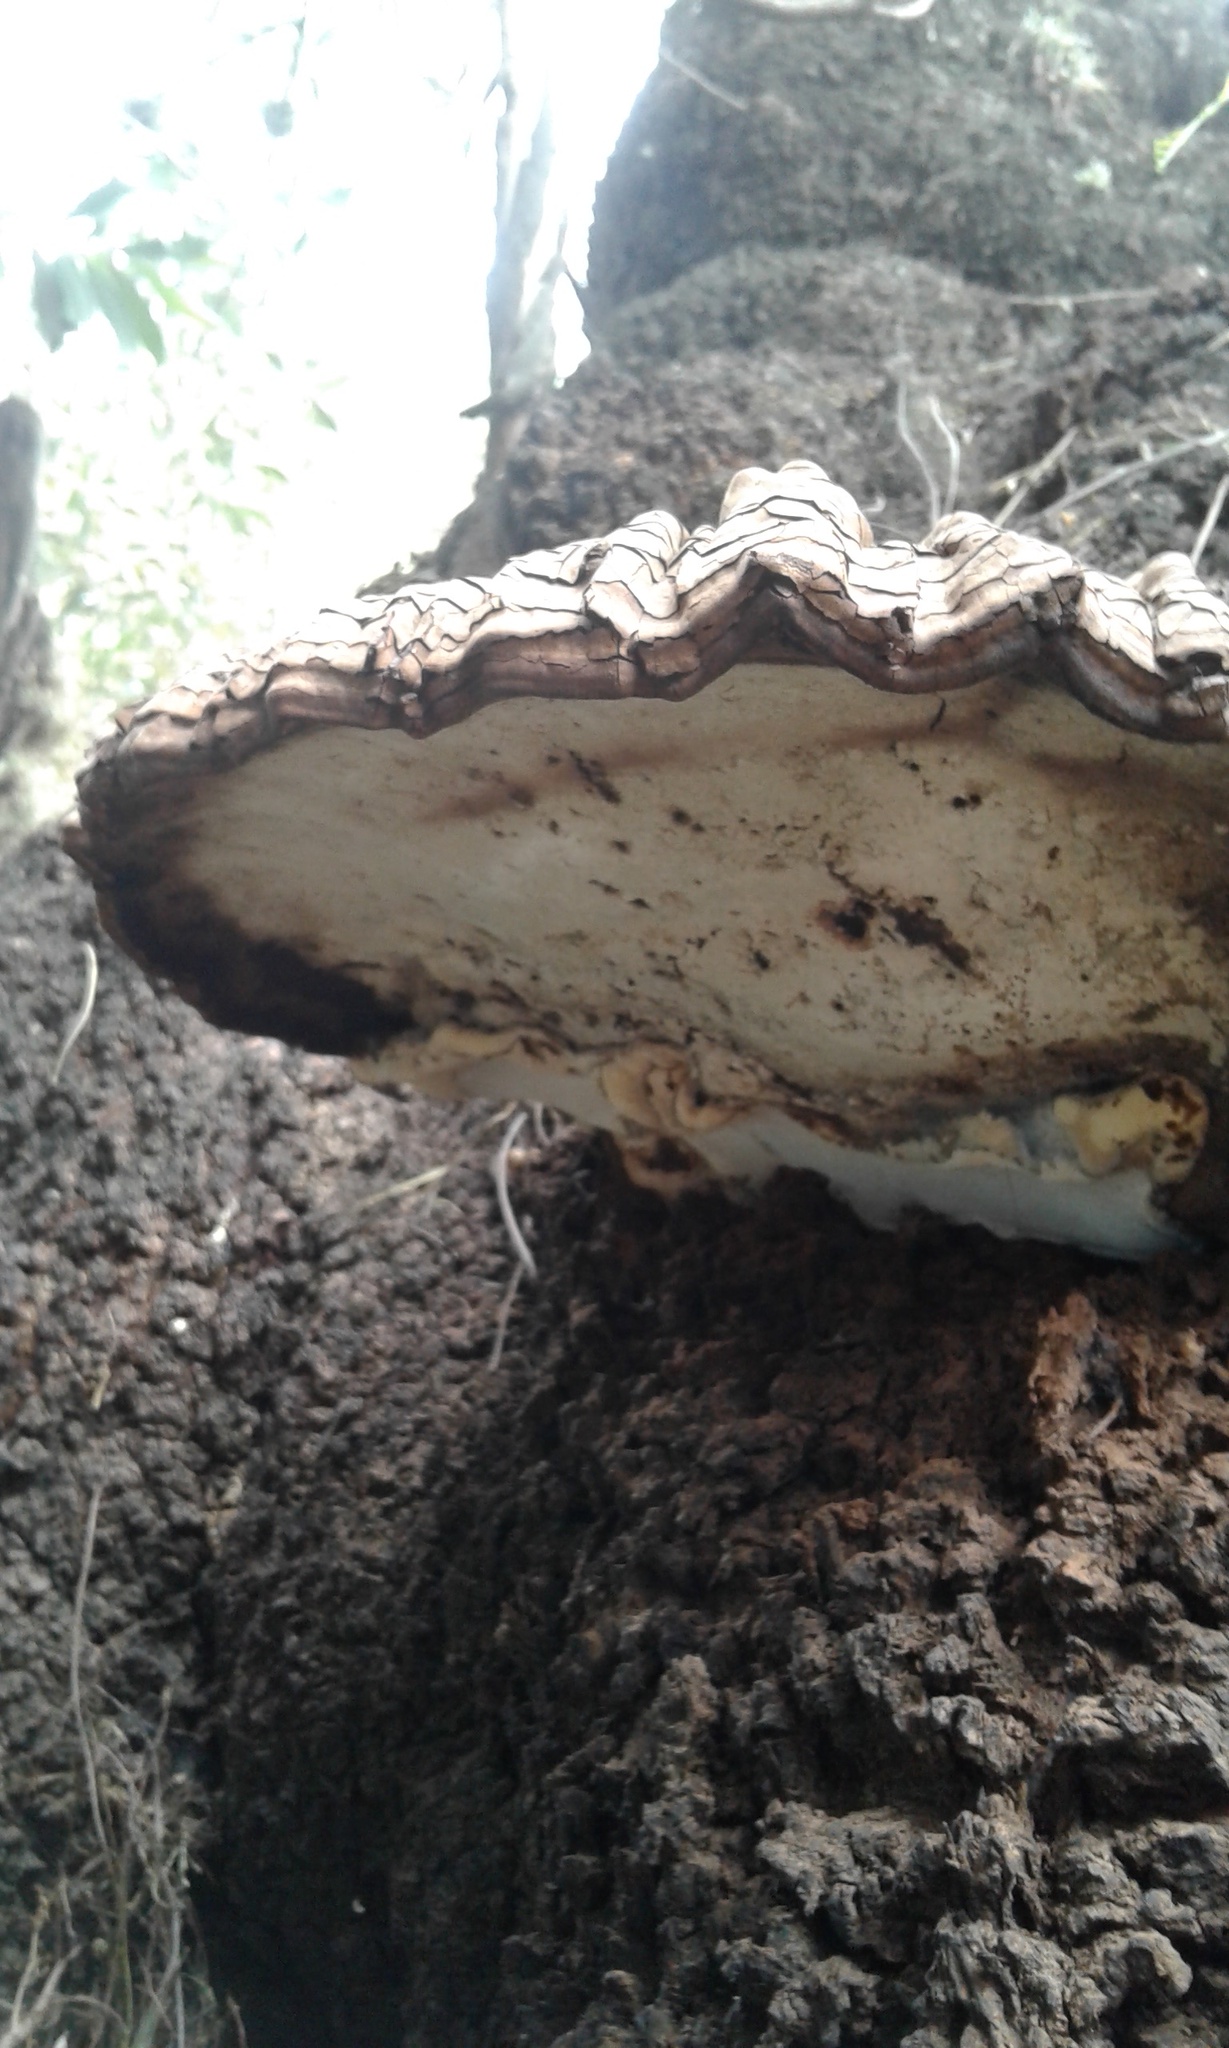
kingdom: Fungi
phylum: Basidiomycota
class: Agaricomycetes
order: Polyporales
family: Polyporaceae
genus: Ganoderma
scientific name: Ganoderma applanatum
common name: Artist's bracket
